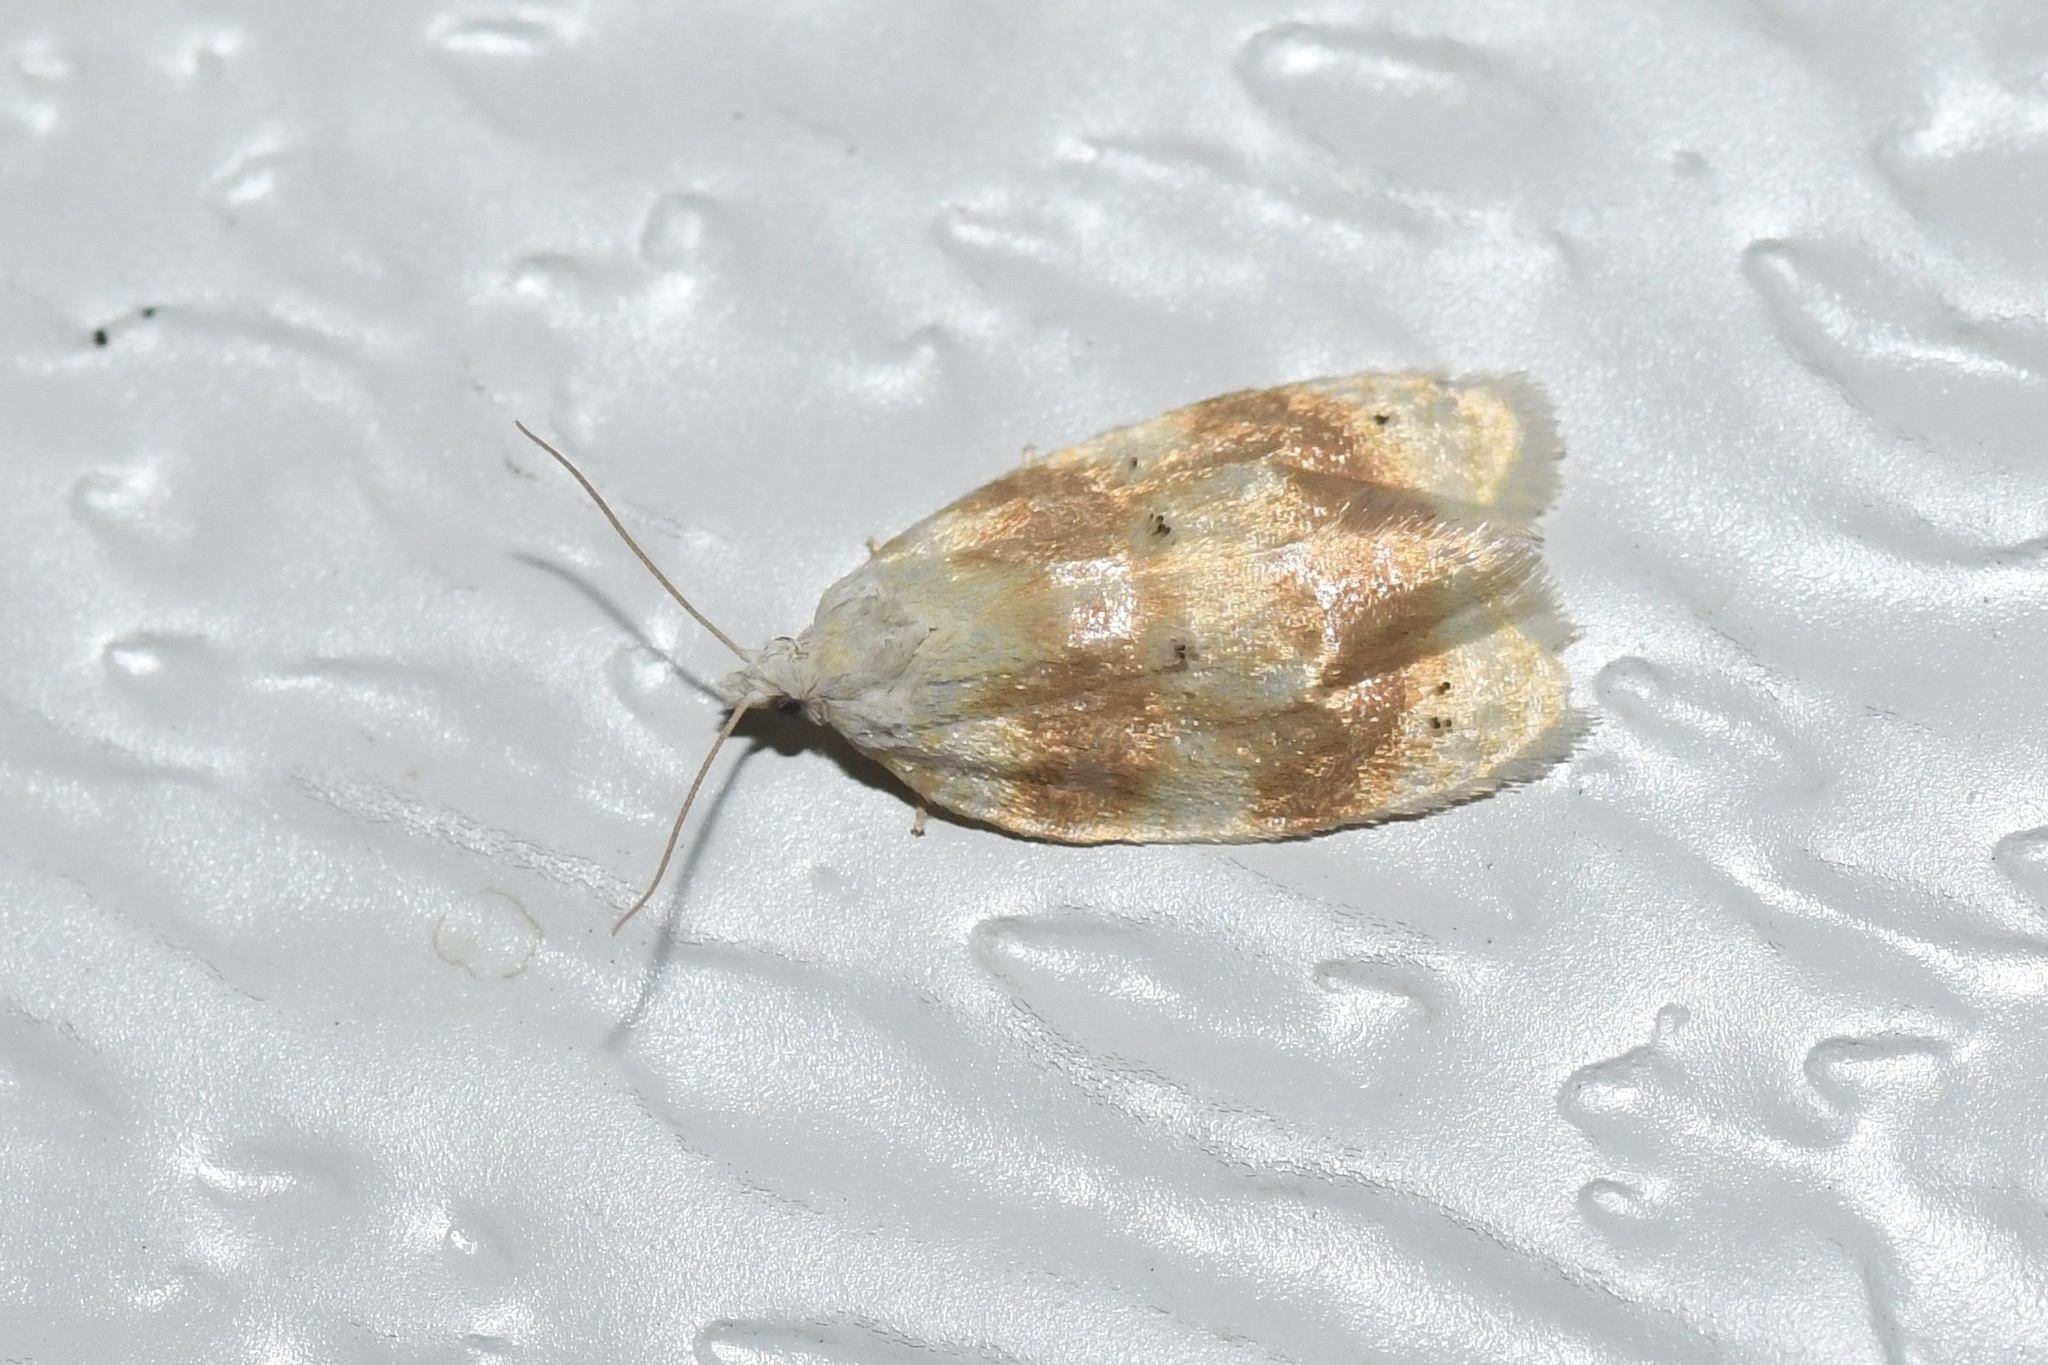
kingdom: Animalia
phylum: Arthropoda
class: Insecta
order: Lepidoptera
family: Tortricidae
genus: Acleris
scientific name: Acleris semipurpurana
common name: Oak leaftier moth
